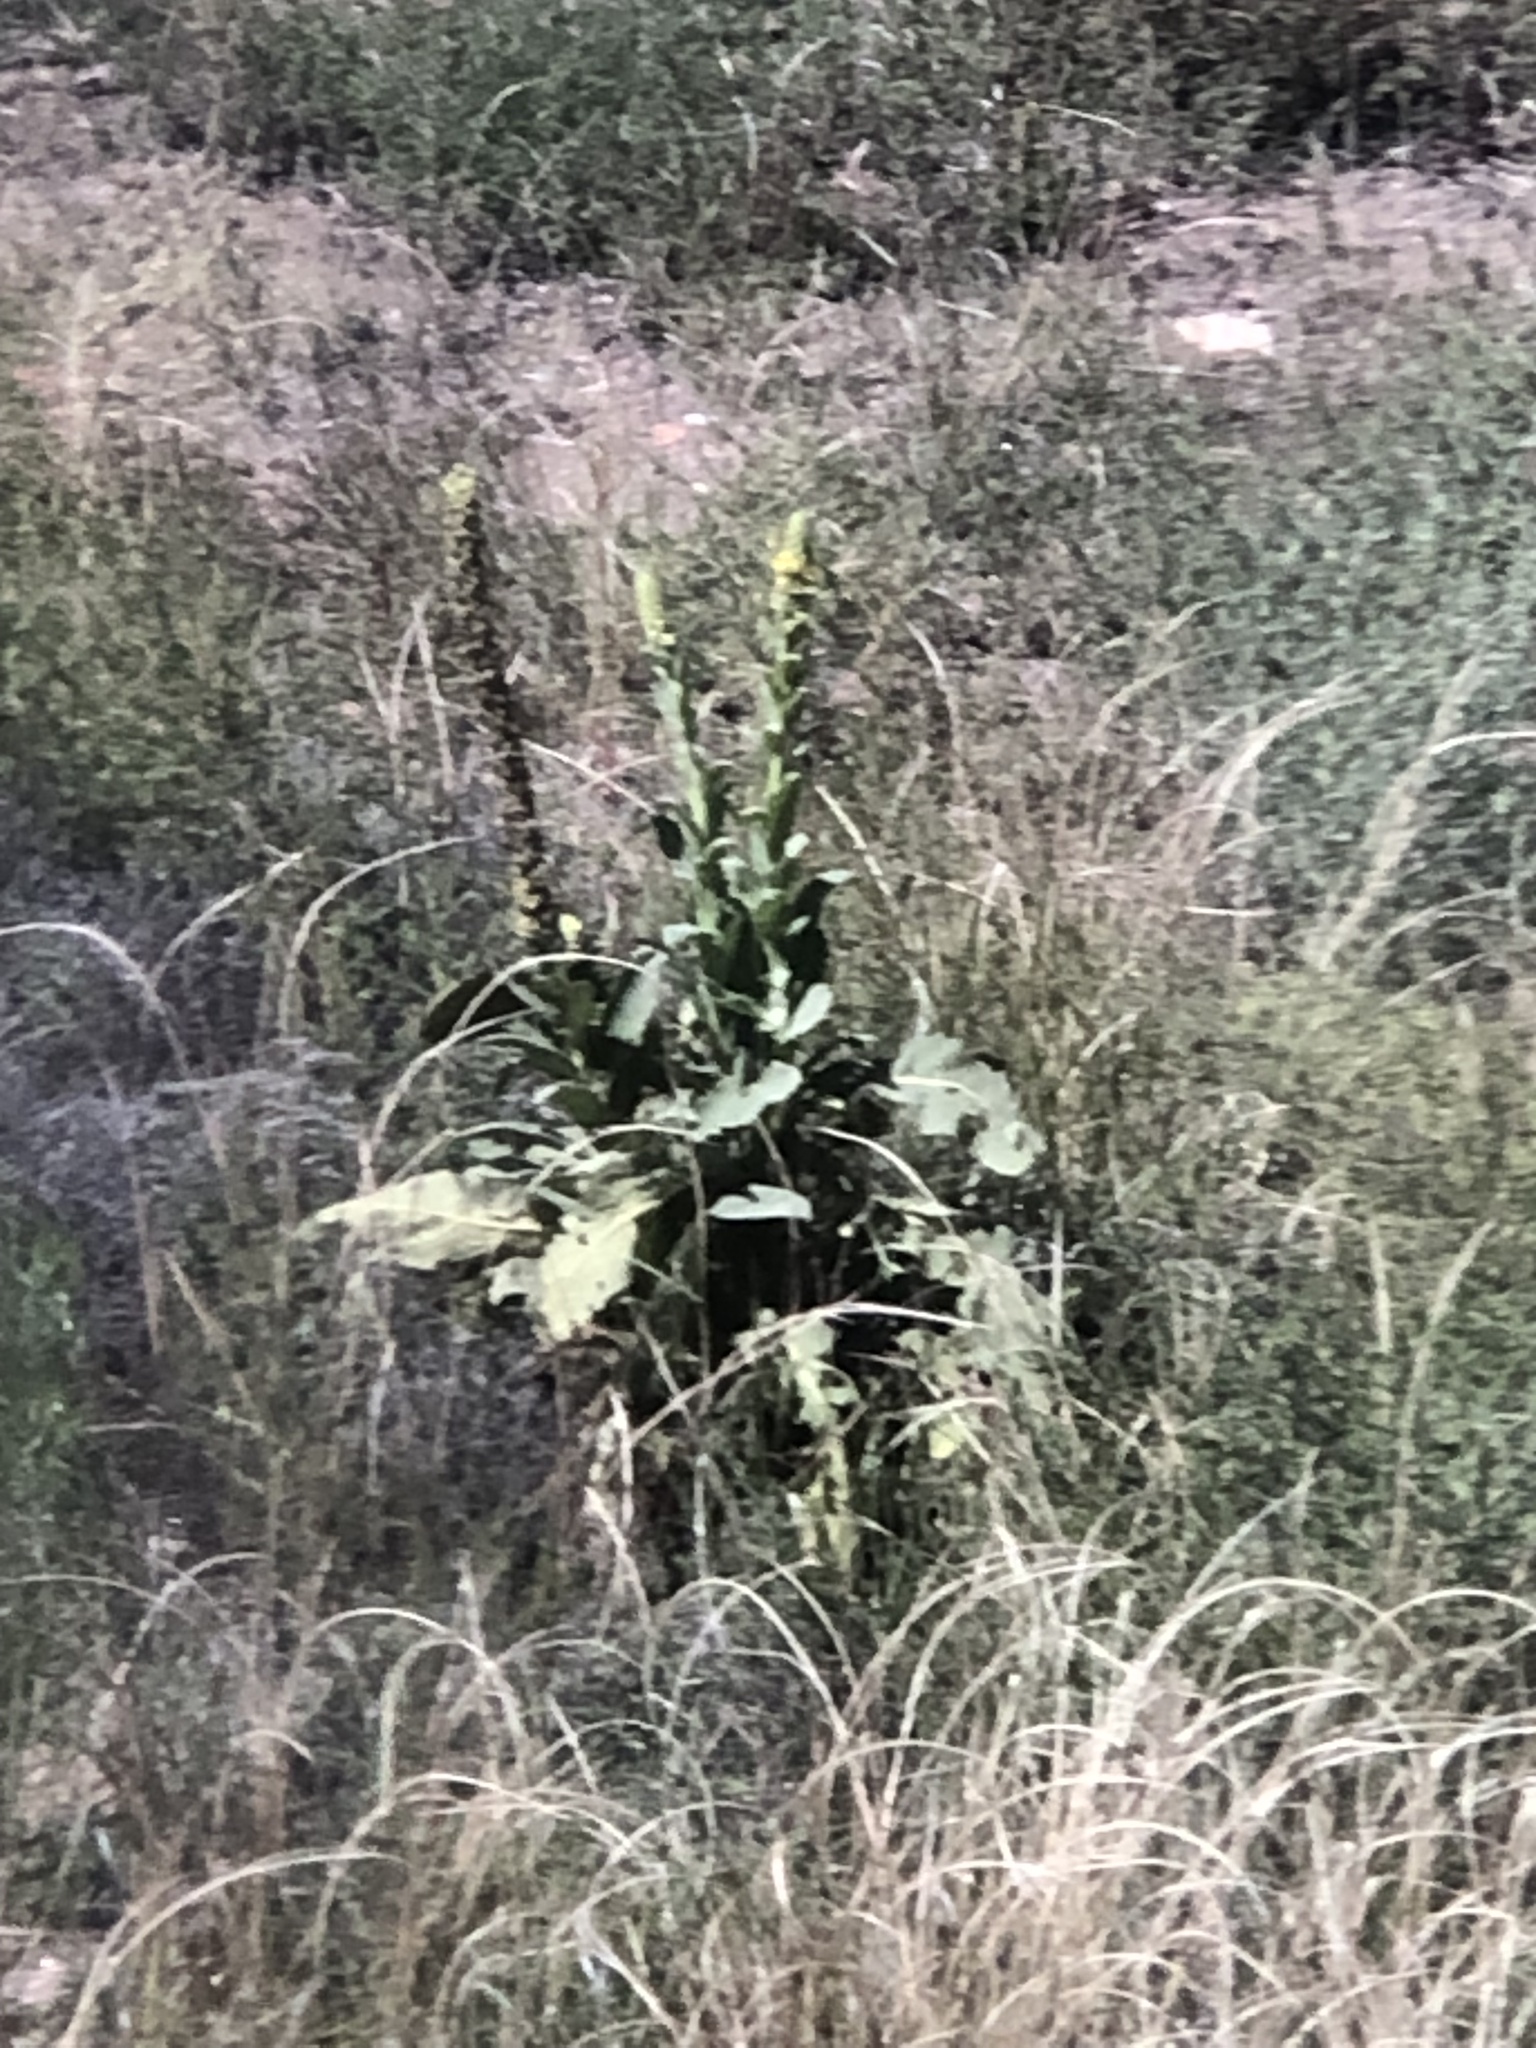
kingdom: Plantae
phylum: Tracheophyta
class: Magnoliopsida
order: Lamiales
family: Scrophulariaceae
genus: Verbascum
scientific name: Verbascum thapsus
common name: Common mullein
